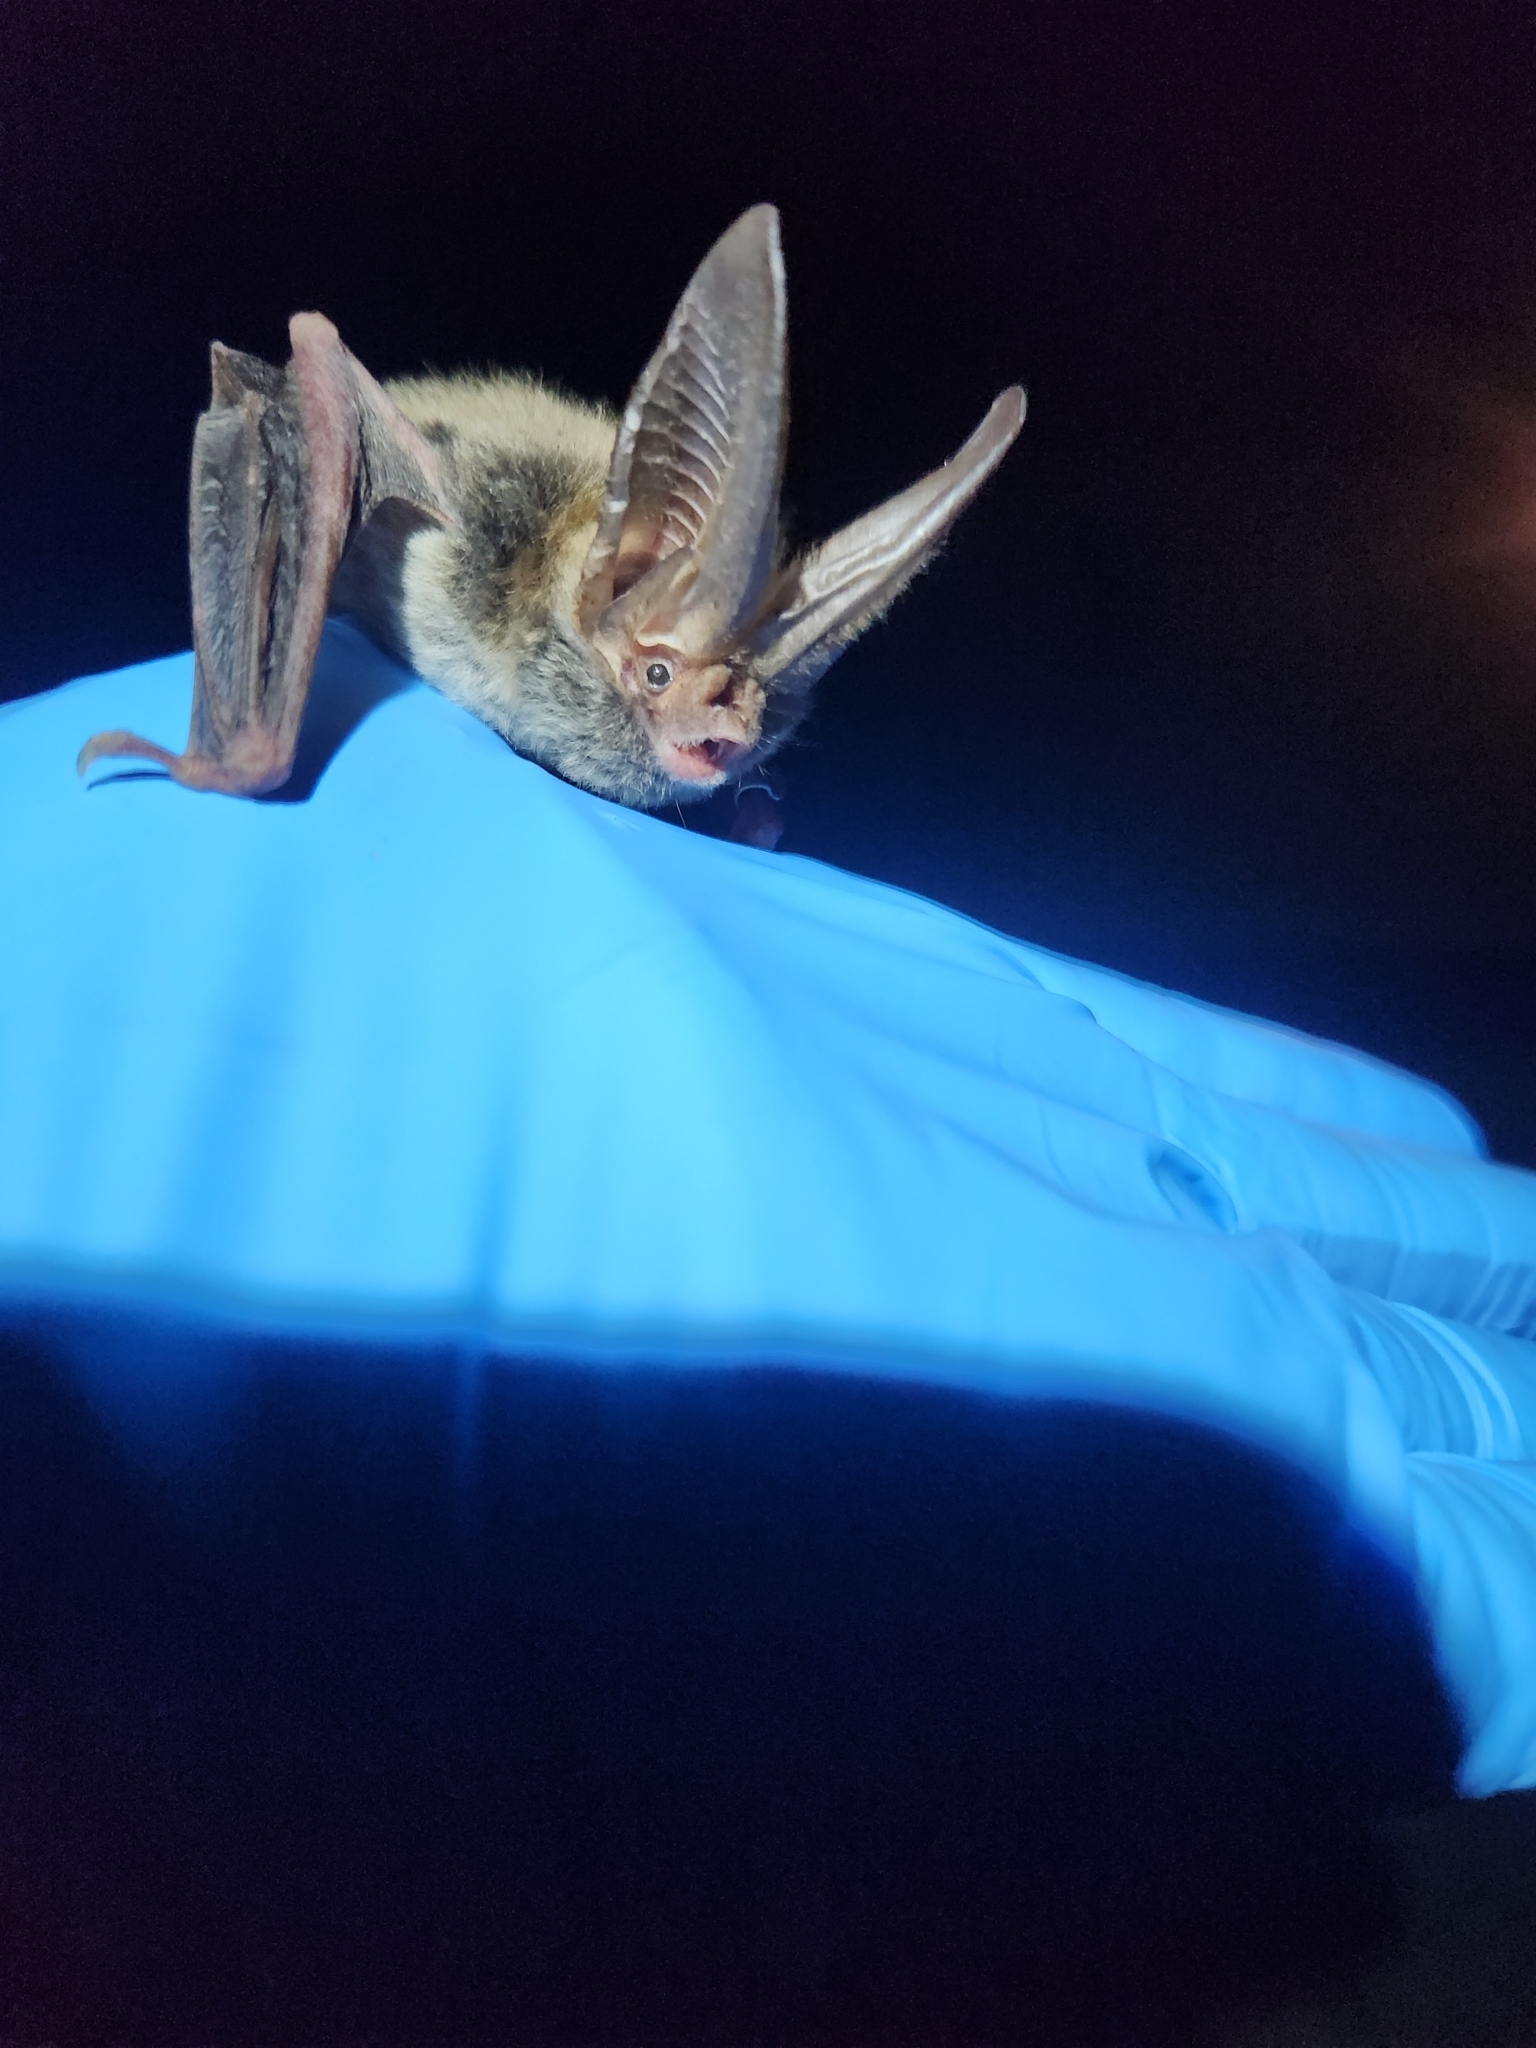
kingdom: Animalia
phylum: Chordata
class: Mammalia
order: Chiroptera
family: Vespertilionidae
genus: Corynorhinus
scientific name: Corynorhinus rafinesquii
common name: Rafinesque's big-eared bat
